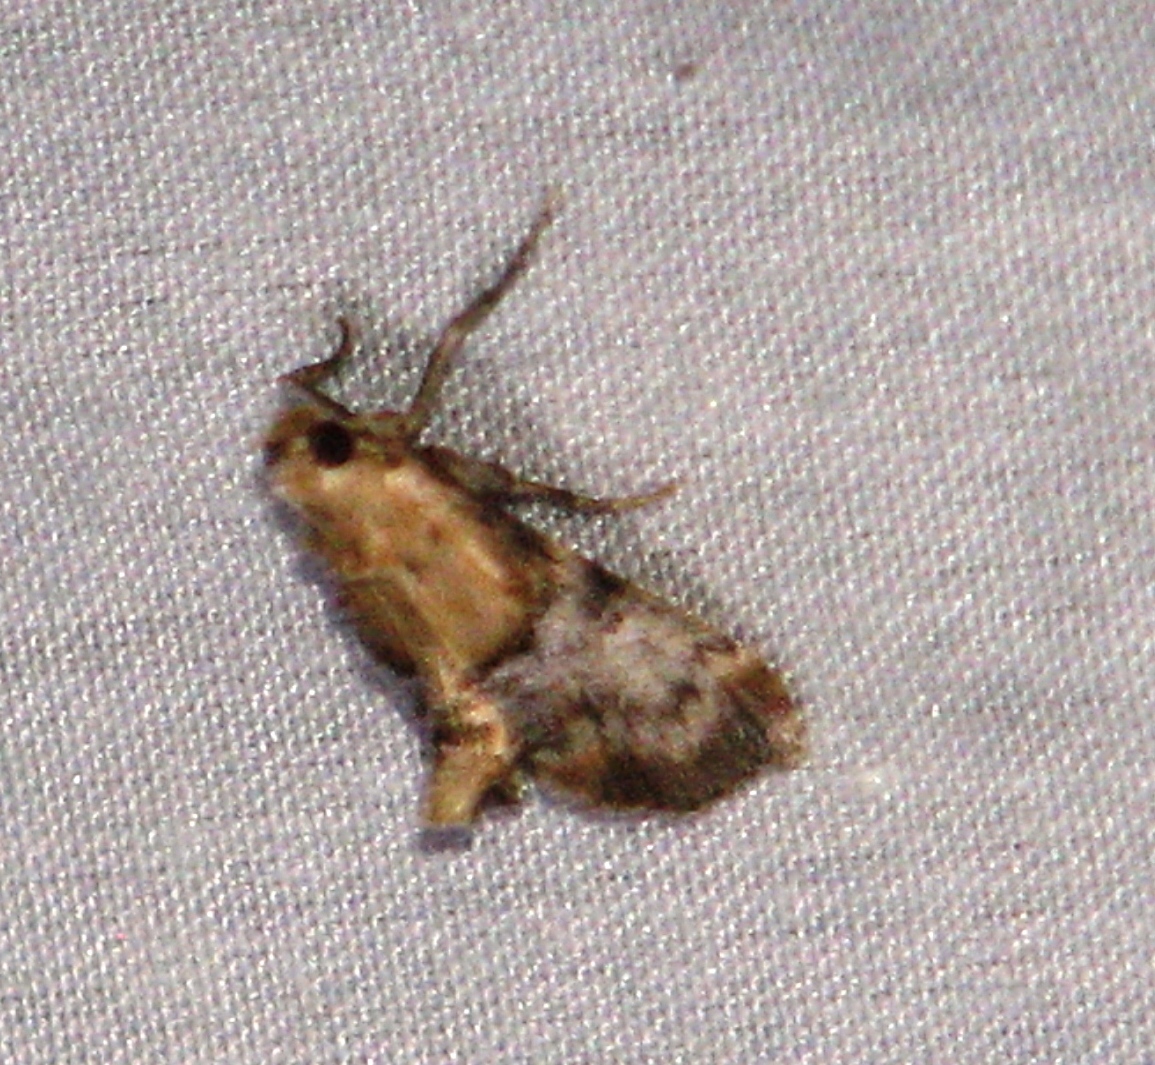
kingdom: Animalia
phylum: Arthropoda
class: Insecta
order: Lepidoptera
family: Pyralidae
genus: Cacozelia
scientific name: Cacozelia elegans
